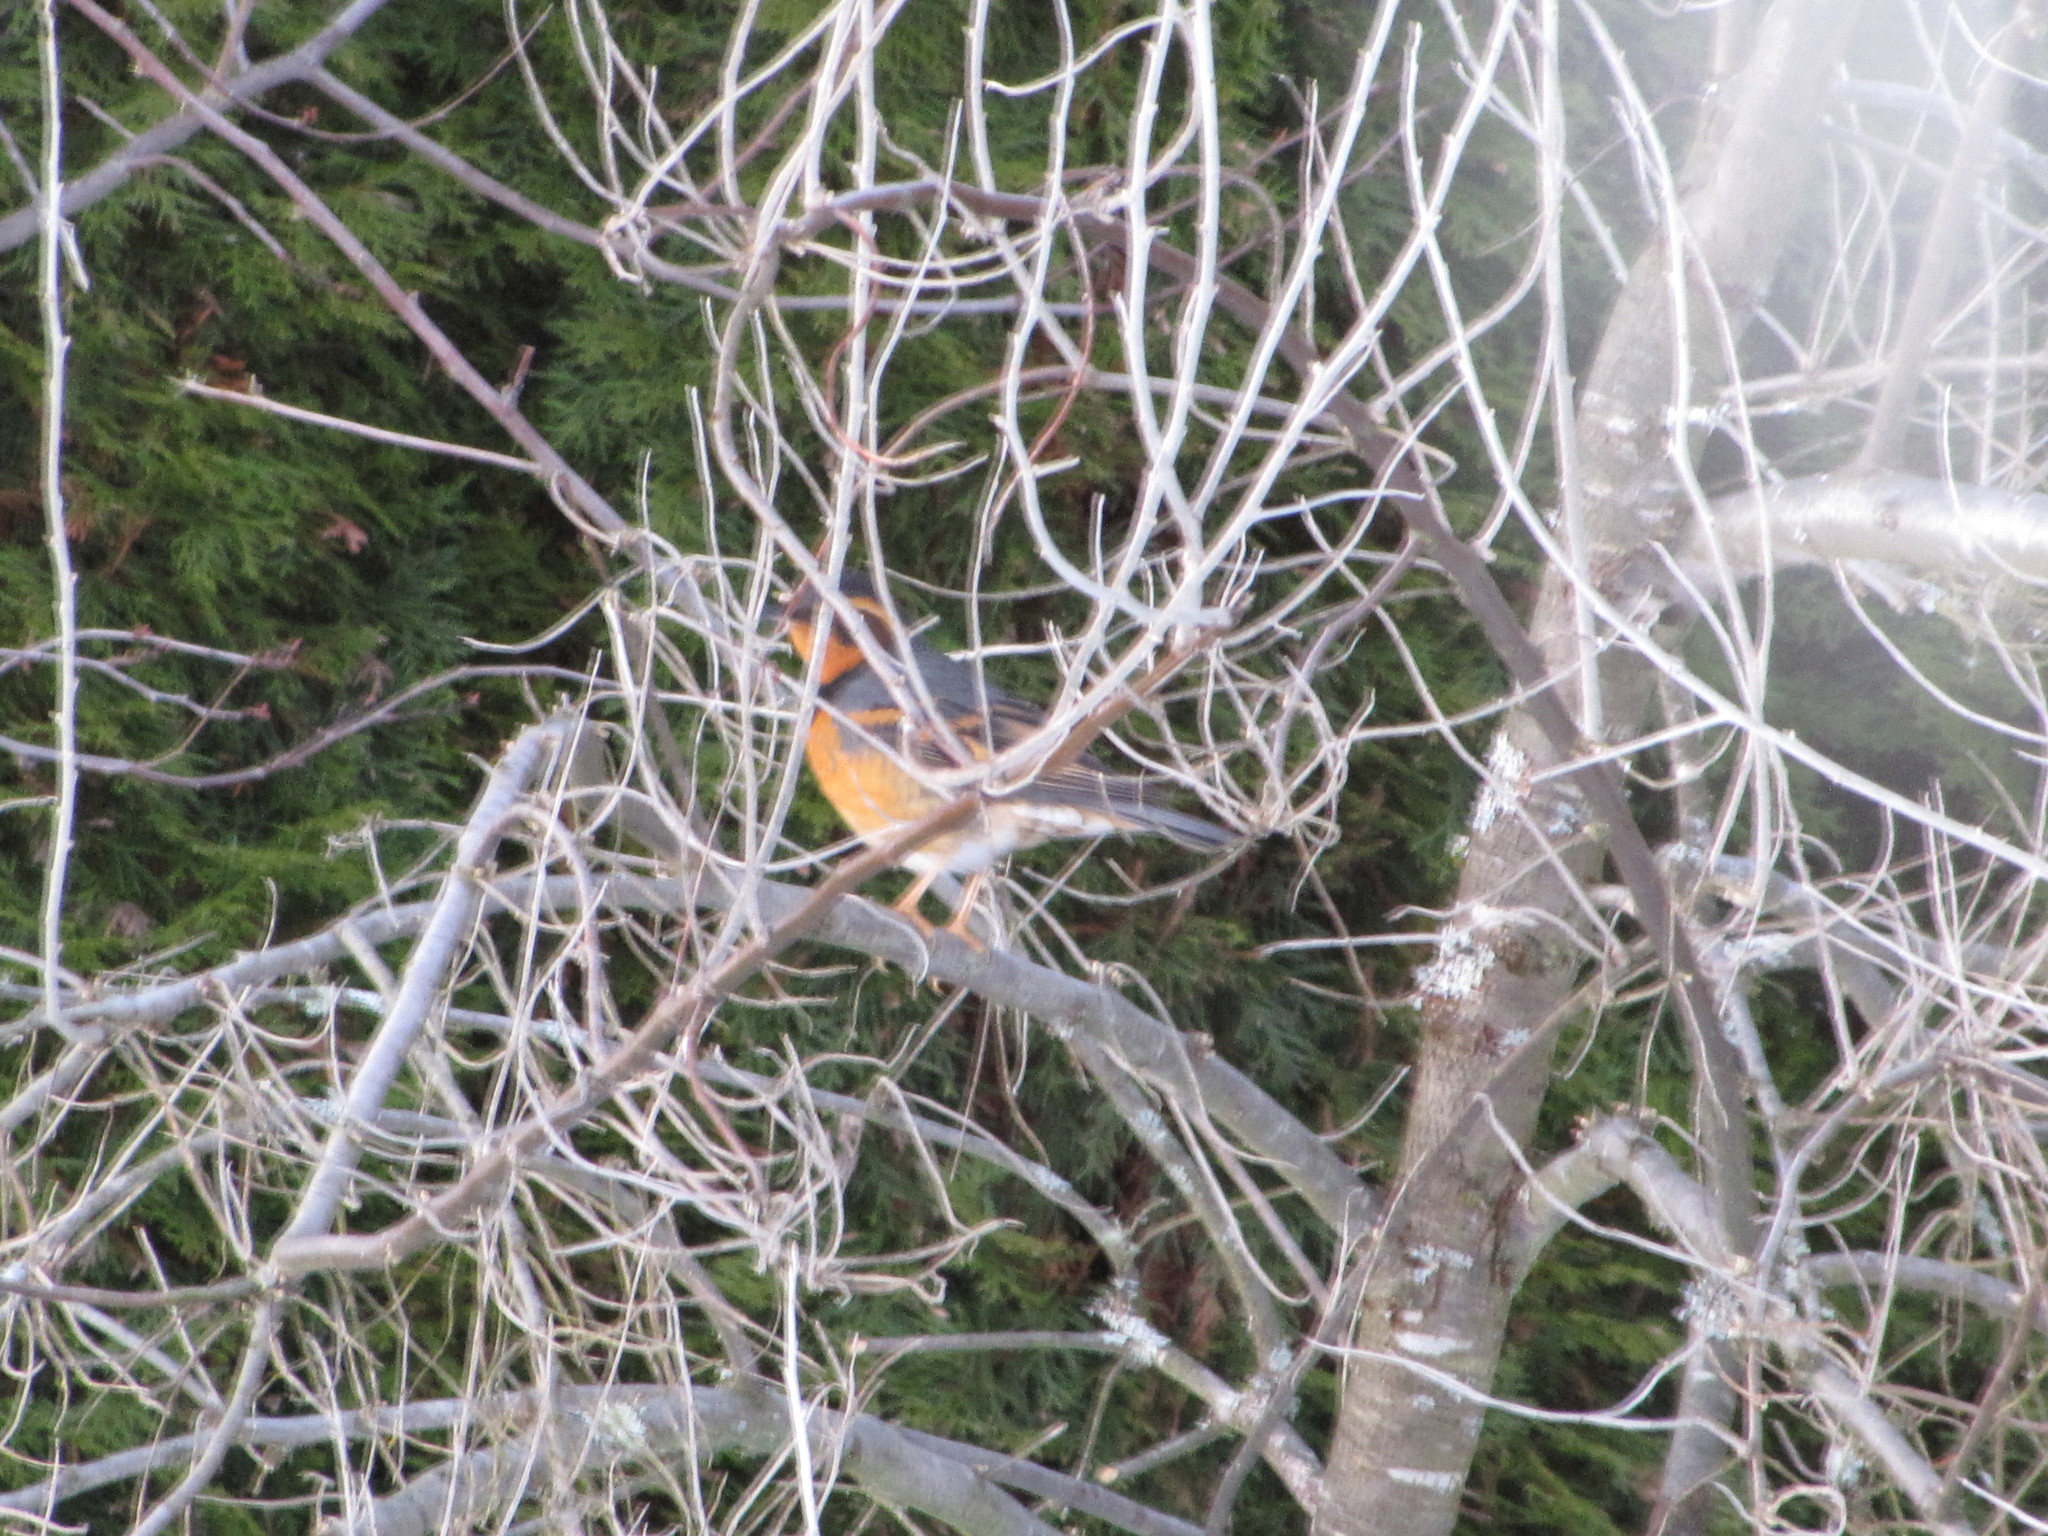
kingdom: Animalia
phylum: Chordata
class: Aves
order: Passeriformes
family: Turdidae
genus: Ixoreus
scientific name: Ixoreus naevius
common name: Varied thrush
